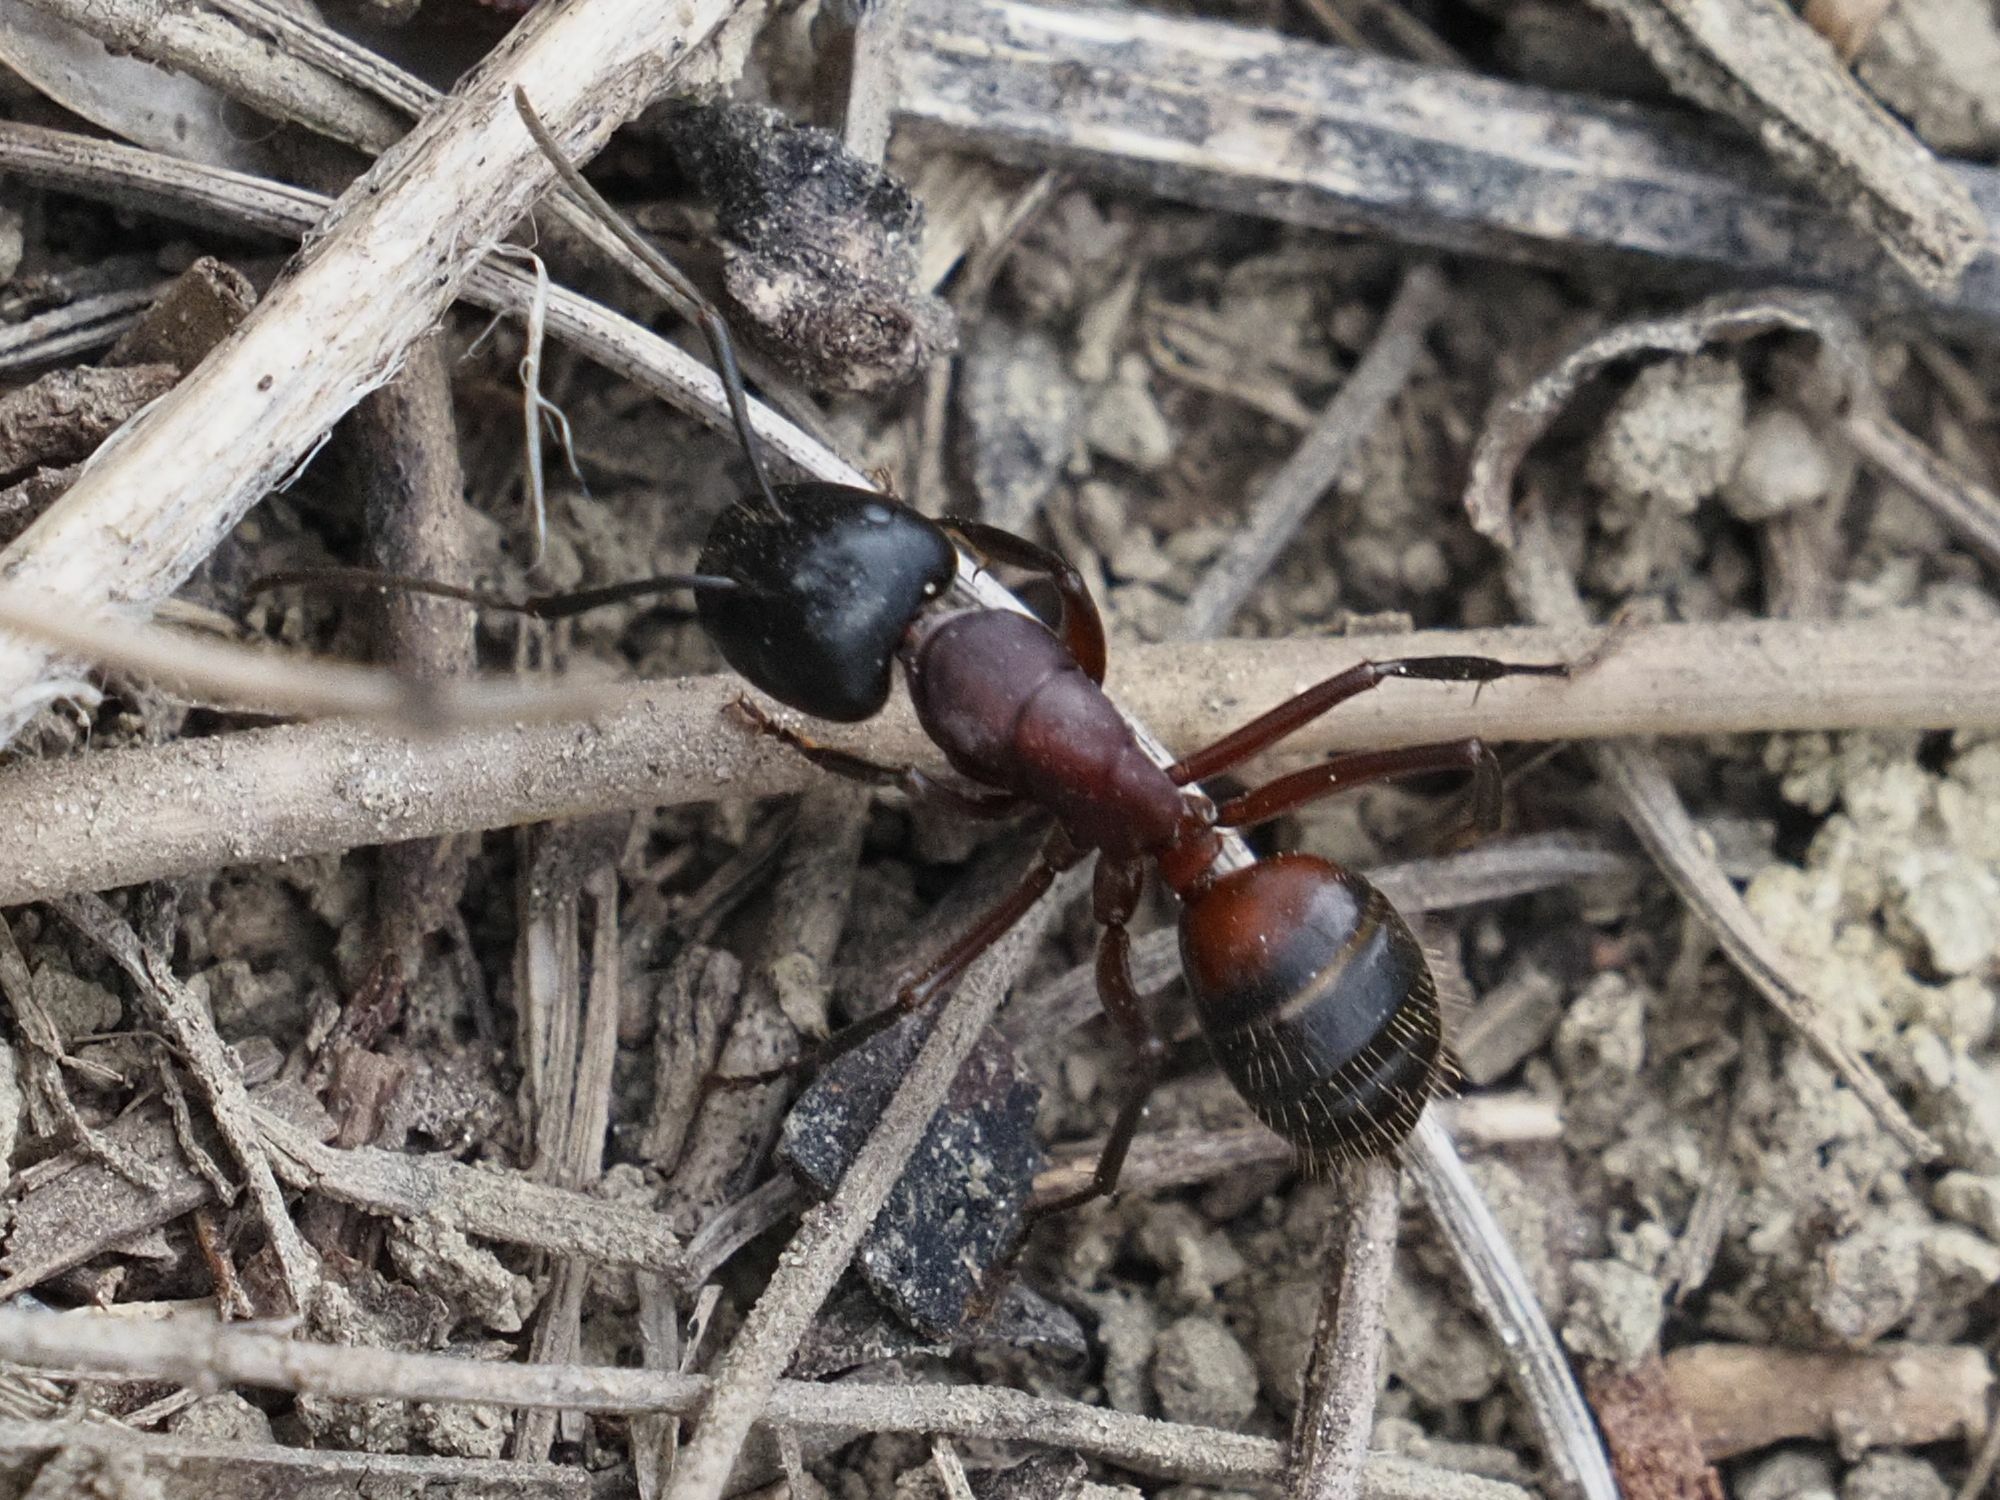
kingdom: Animalia
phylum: Arthropoda
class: Insecta
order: Hymenoptera
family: Formicidae
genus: Camponotus
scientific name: Camponotus ligniperdus
